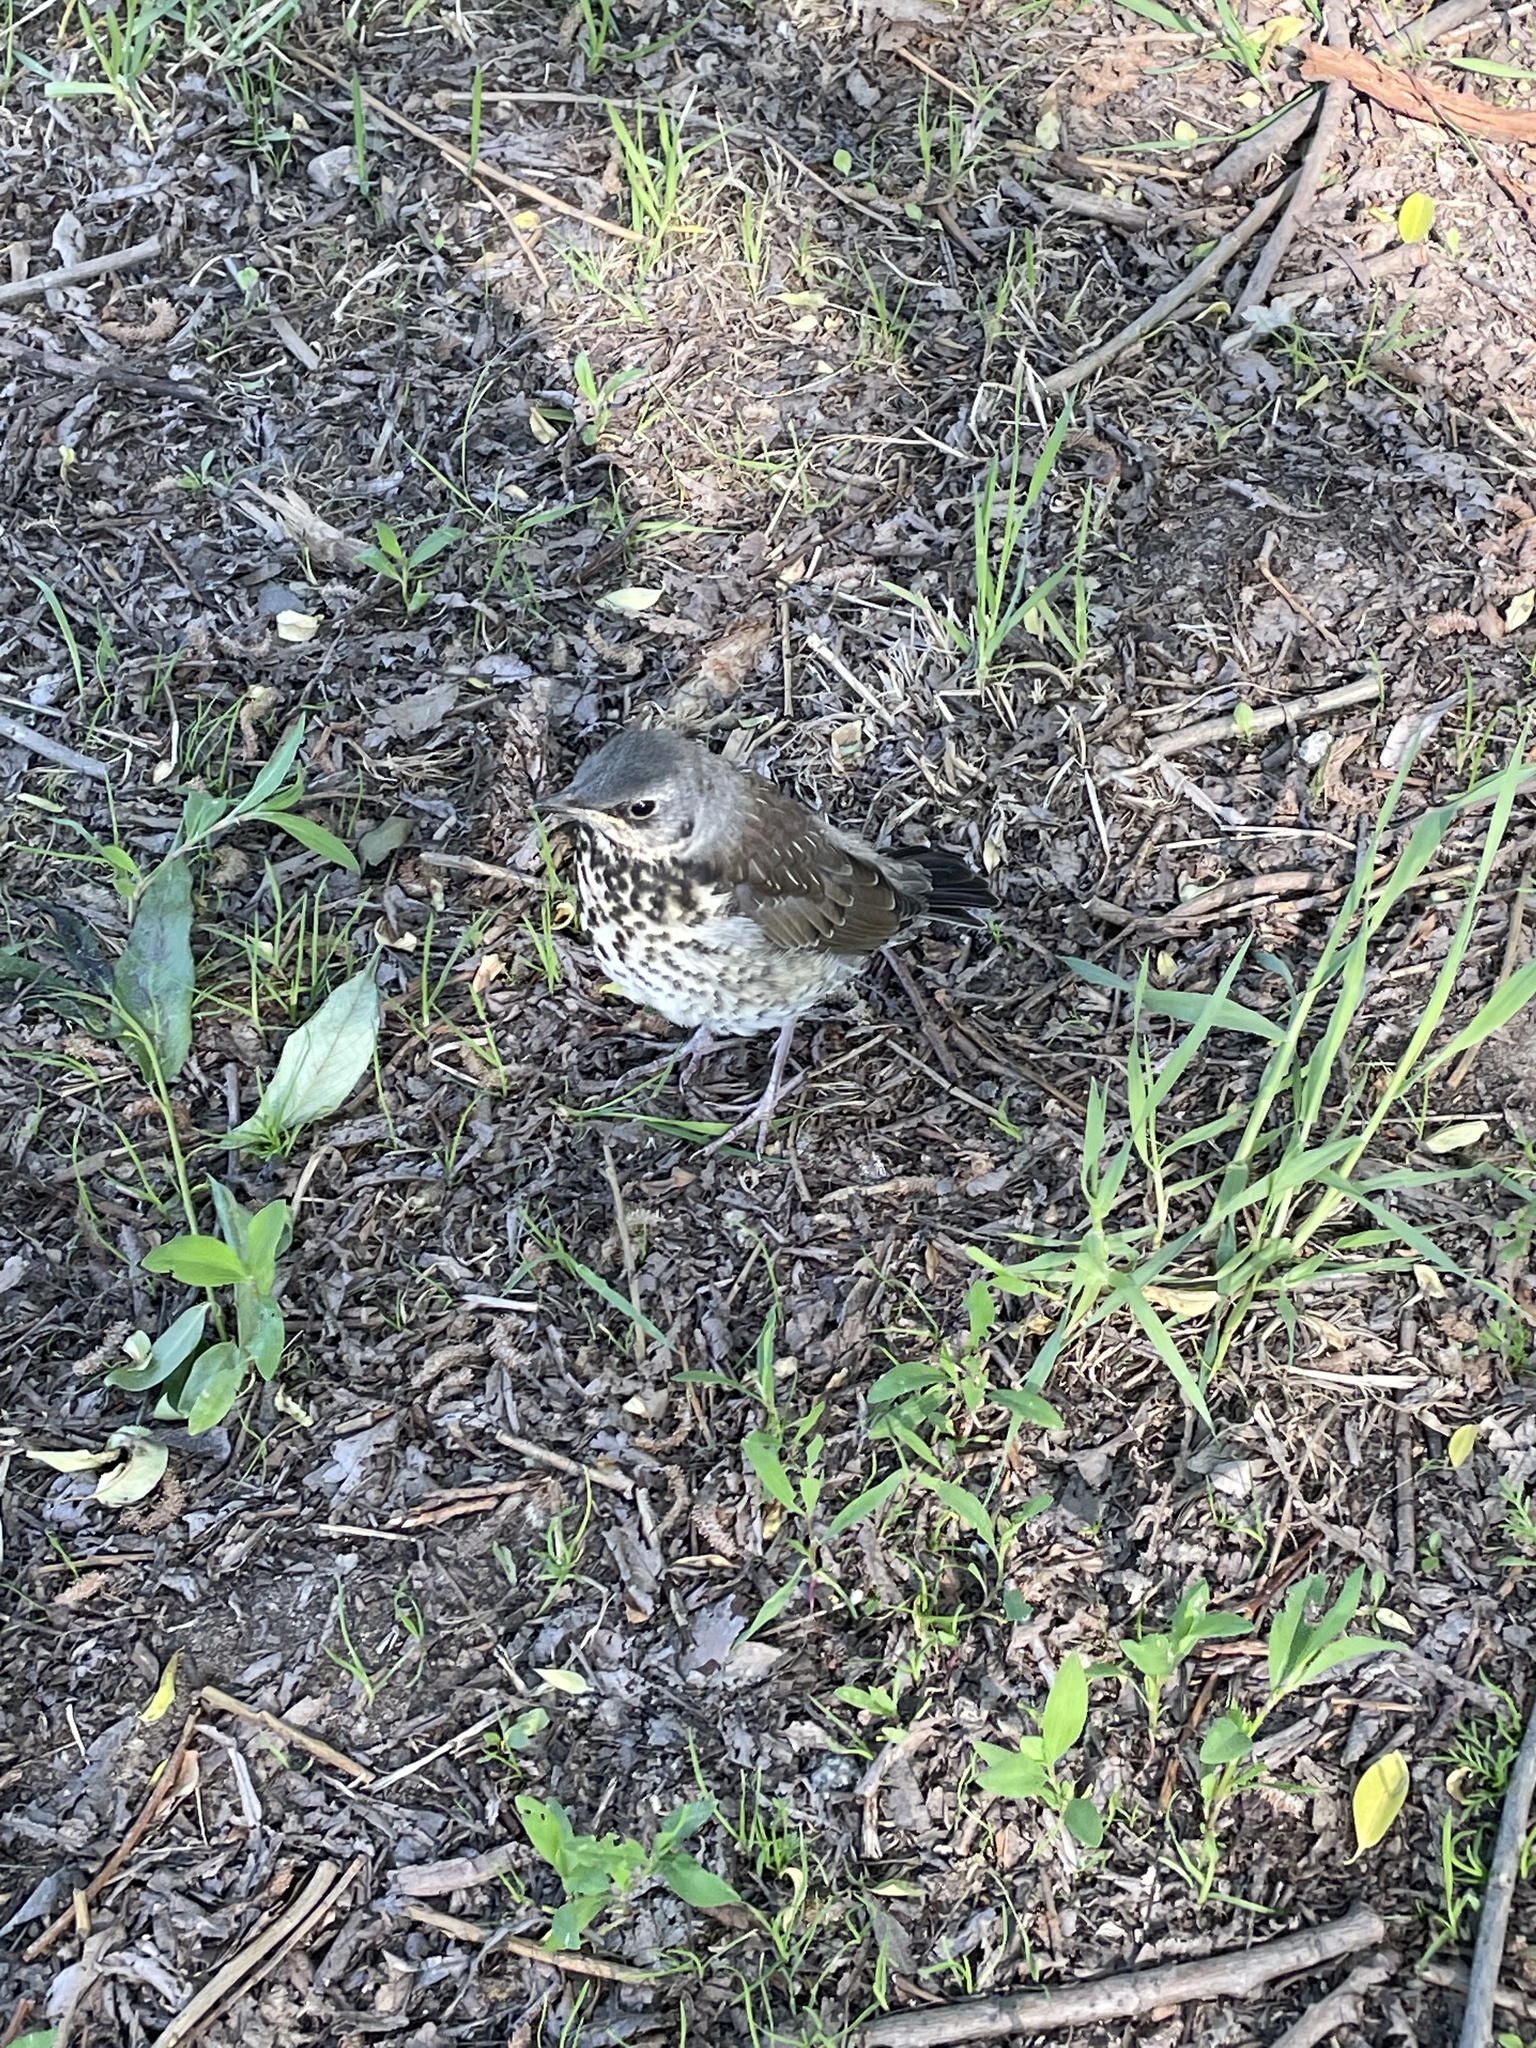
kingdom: Animalia
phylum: Chordata
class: Aves
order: Passeriformes
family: Turdidae
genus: Turdus
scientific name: Turdus pilaris
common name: Fieldfare
